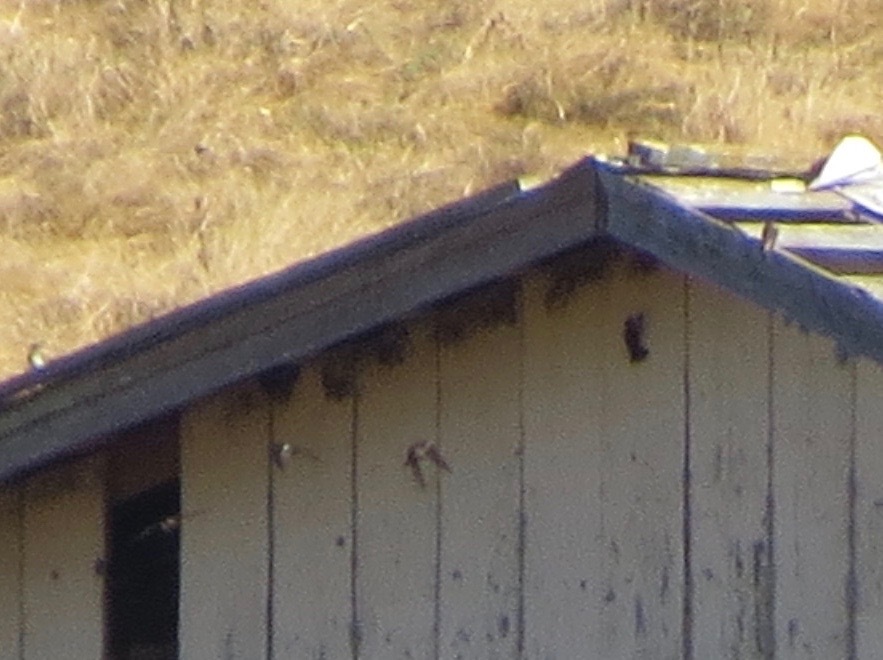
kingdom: Animalia
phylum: Chordata
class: Aves
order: Passeriformes
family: Hirundinidae
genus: Petrochelidon
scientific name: Petrochelidon pyrrhonota
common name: American cliff swallow
